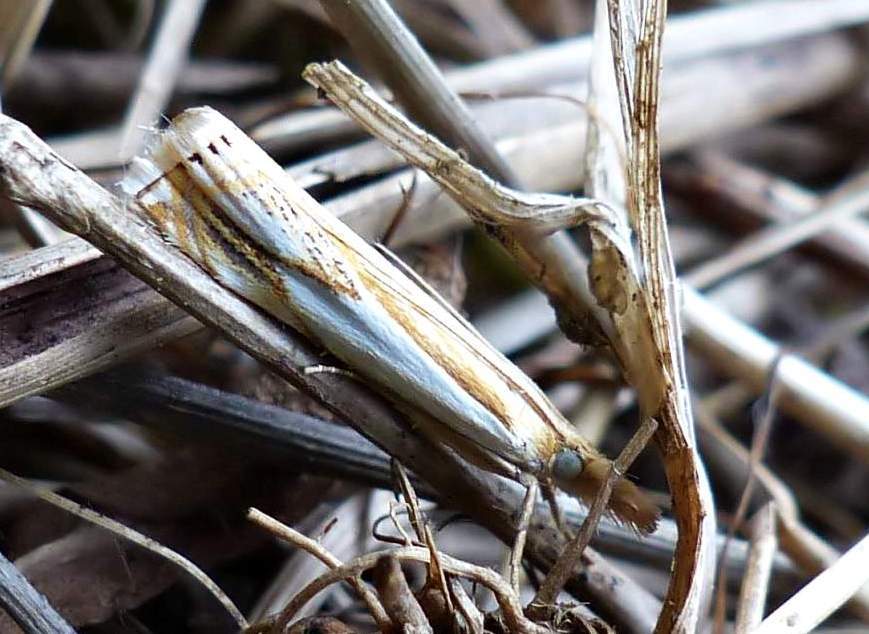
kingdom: Animalia
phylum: Arthropoda
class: Insecta
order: Lepidoptera
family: Crambidae
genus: Crambus
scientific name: Crambus agitatellus
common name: Double-banded grass-veneer
